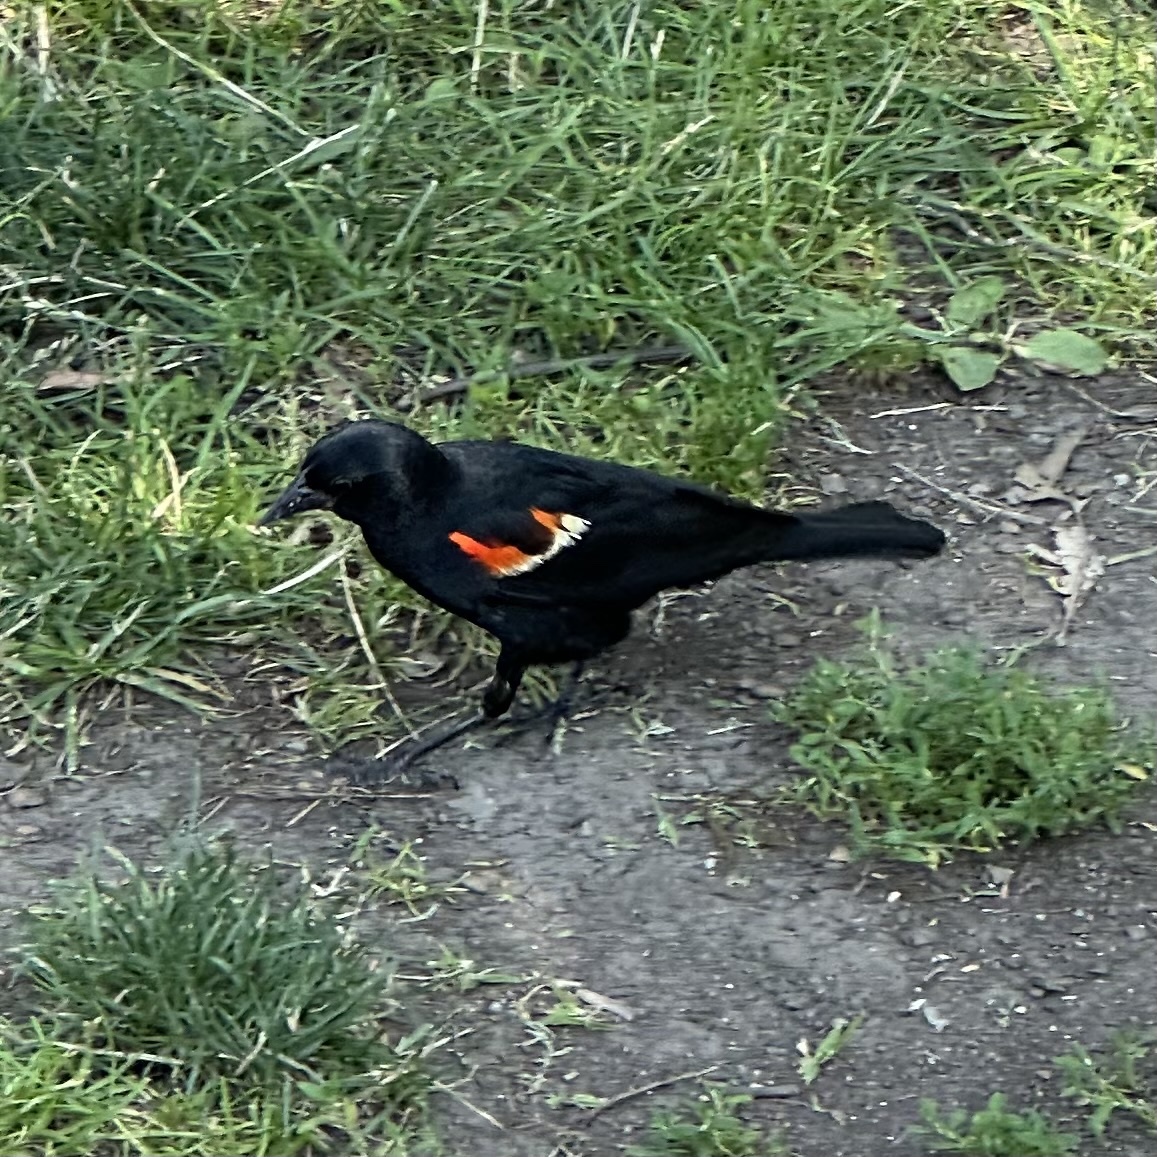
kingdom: Animalia
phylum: Chordata
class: Aves
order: Passeriformes
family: Icteridae
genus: Agelaius
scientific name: Agelaius phoeniceus
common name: Red-winged blackbird
